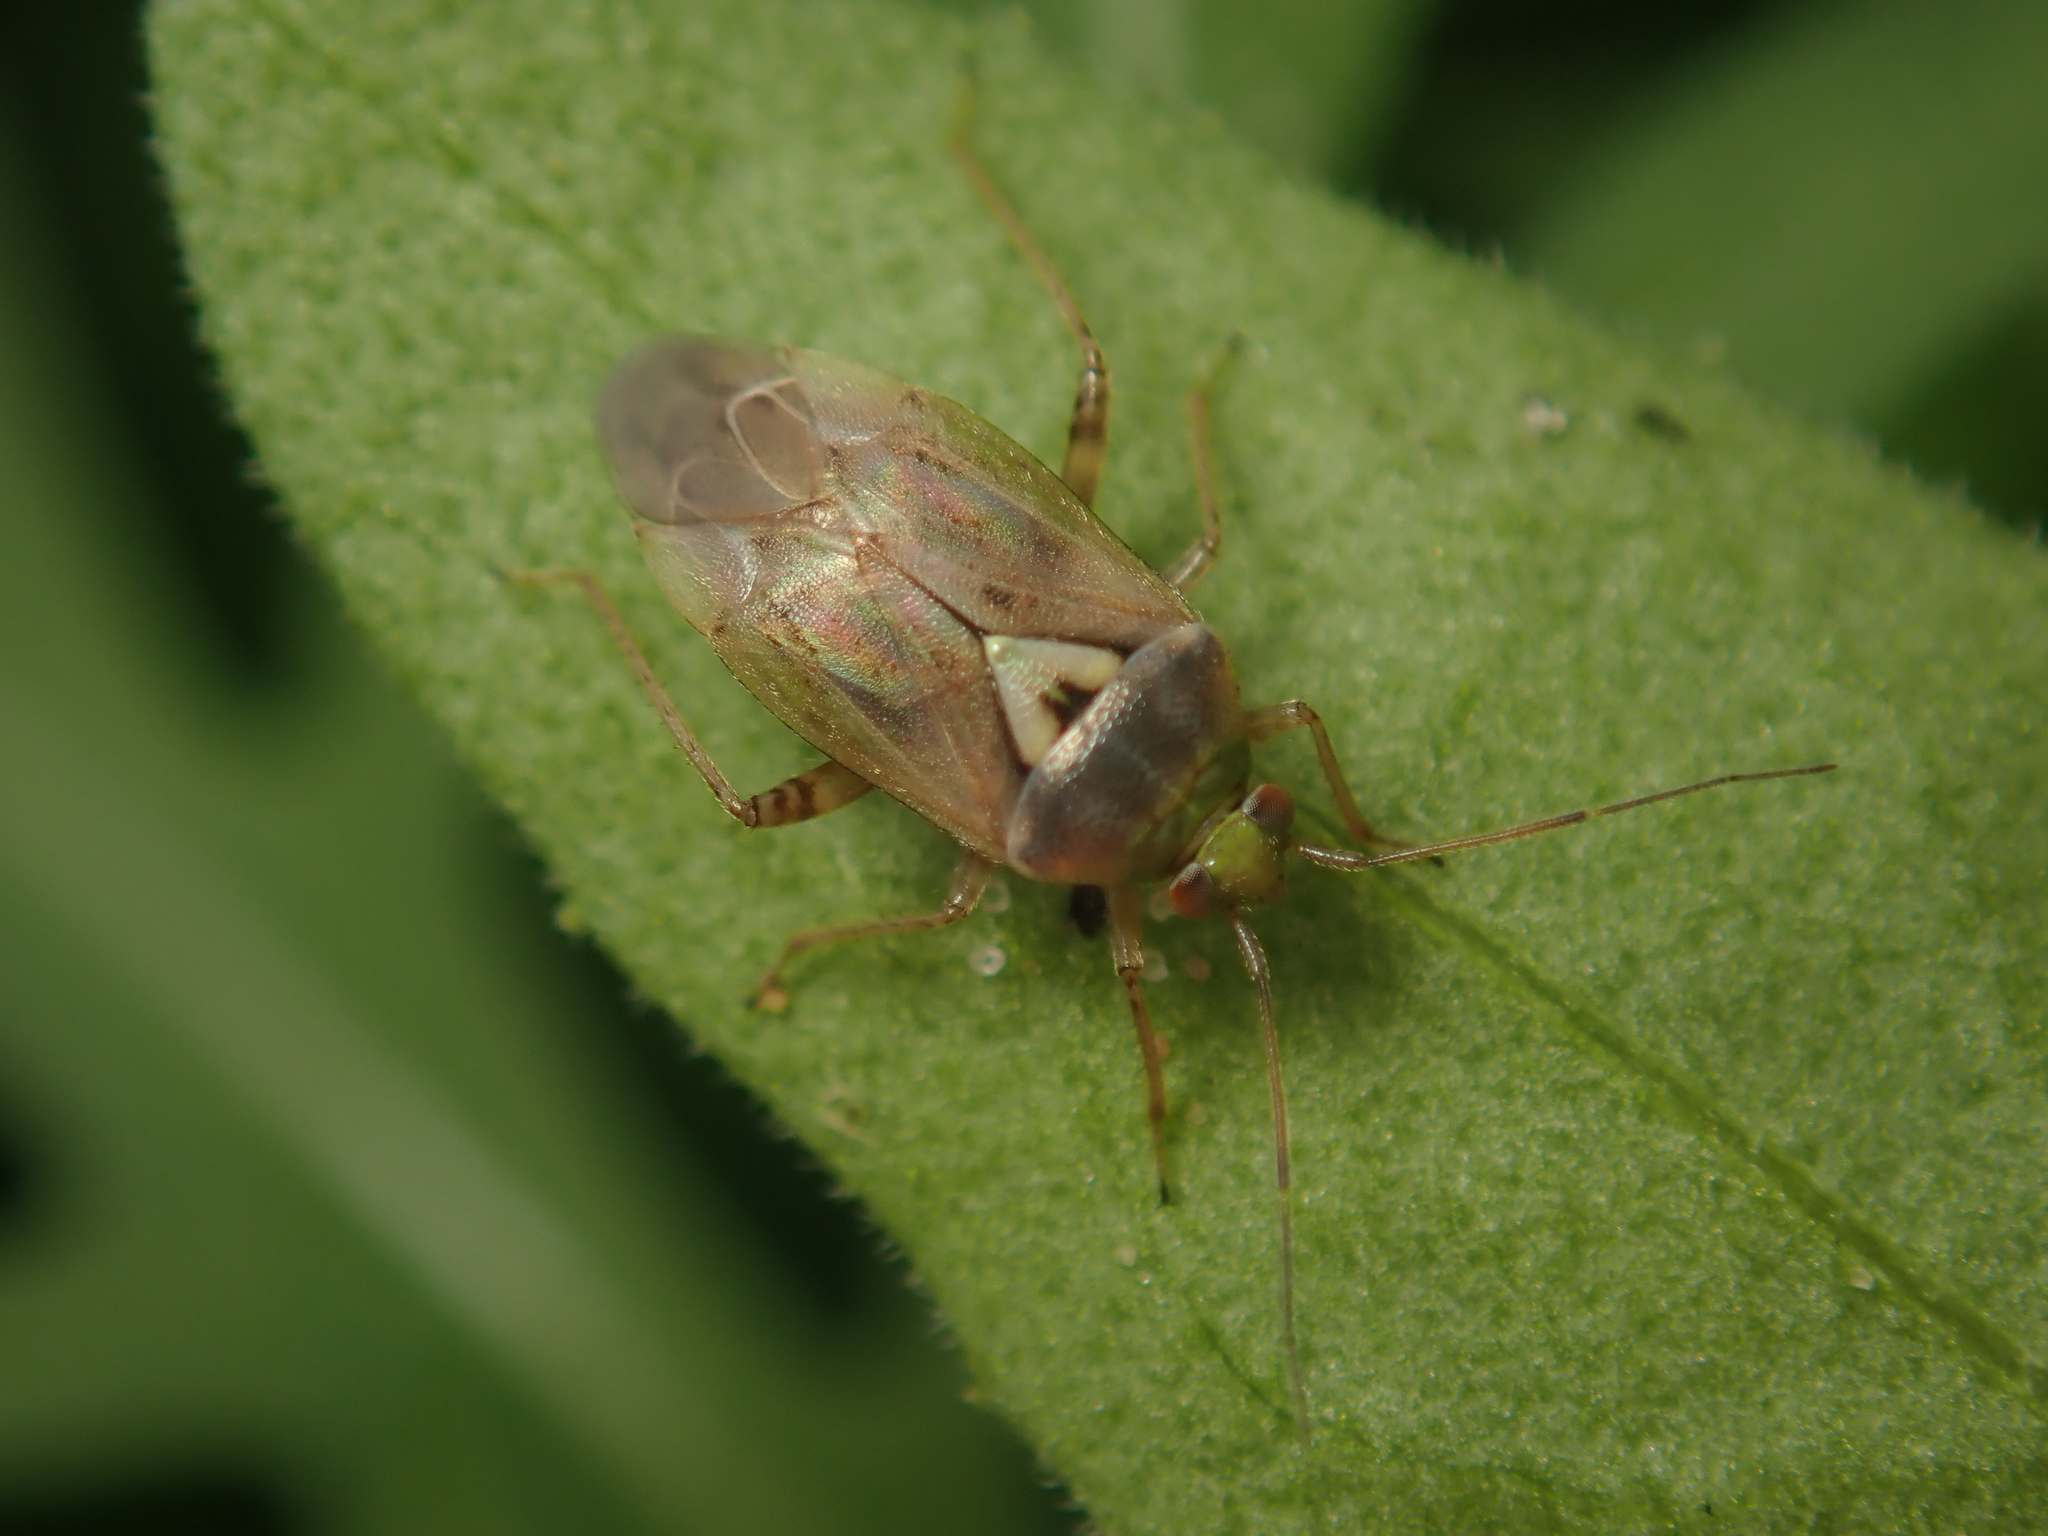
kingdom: Animalia
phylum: Arthropoda
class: Insecta
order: Hemiptera
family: Miridae
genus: Lygus
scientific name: Lygus pratensis
